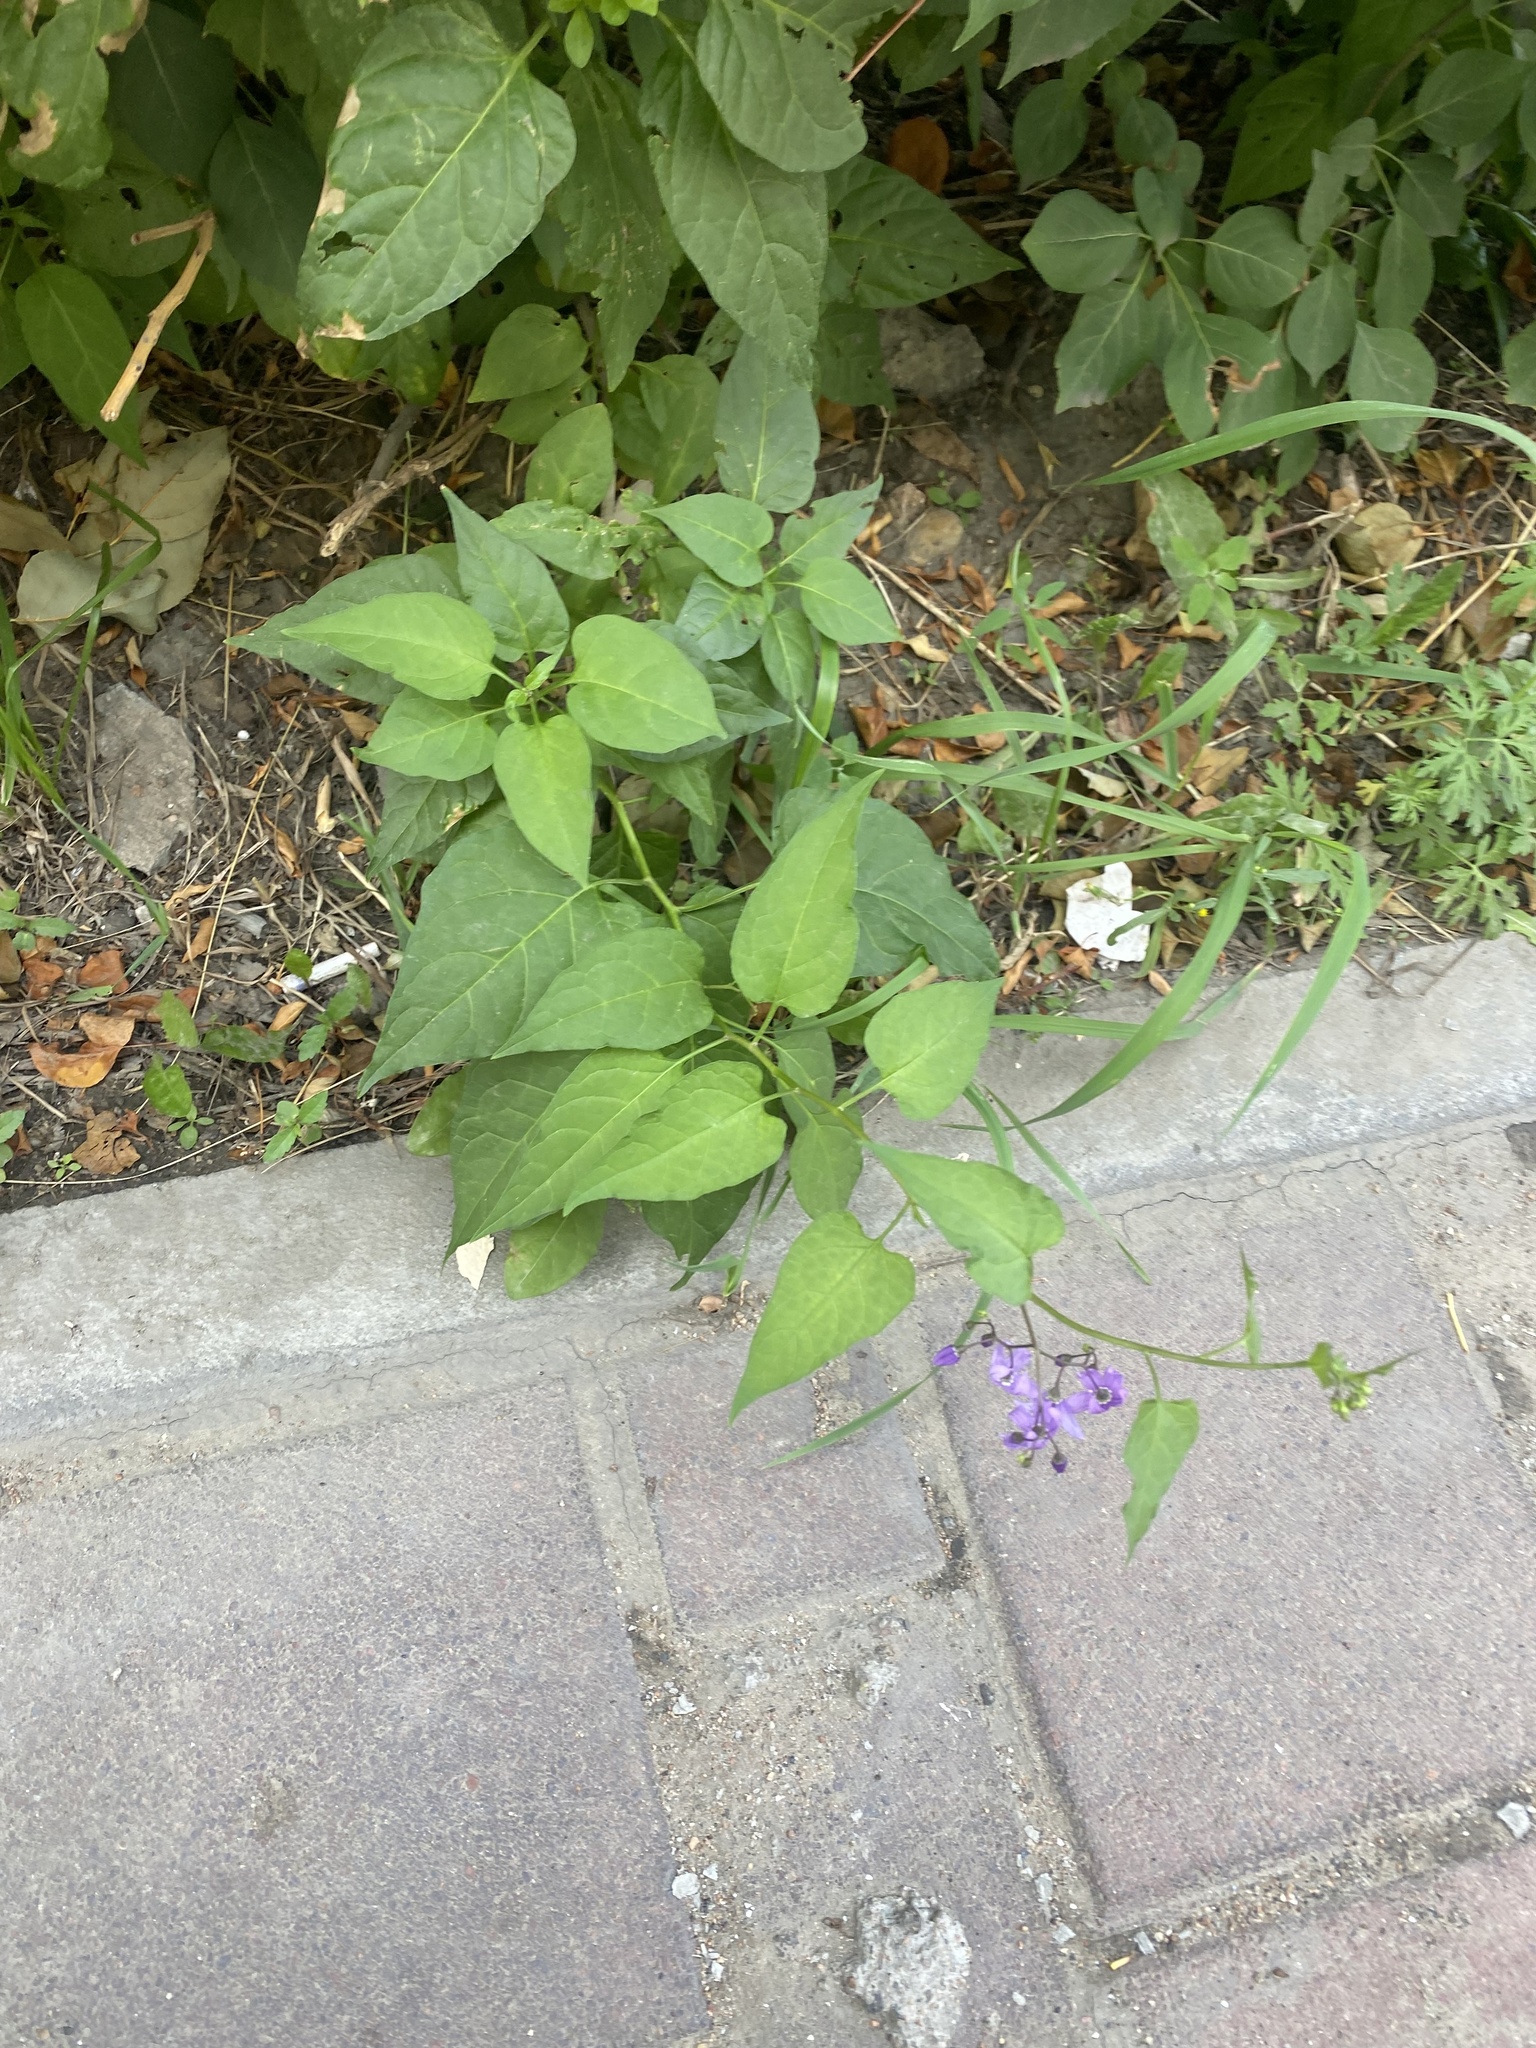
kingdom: Plantae
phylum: Tracheophyta
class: Magnoliopsida
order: Solanales
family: Solanaceae
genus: Solanum
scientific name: Solanum dulcamara
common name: Climbing nightshade
